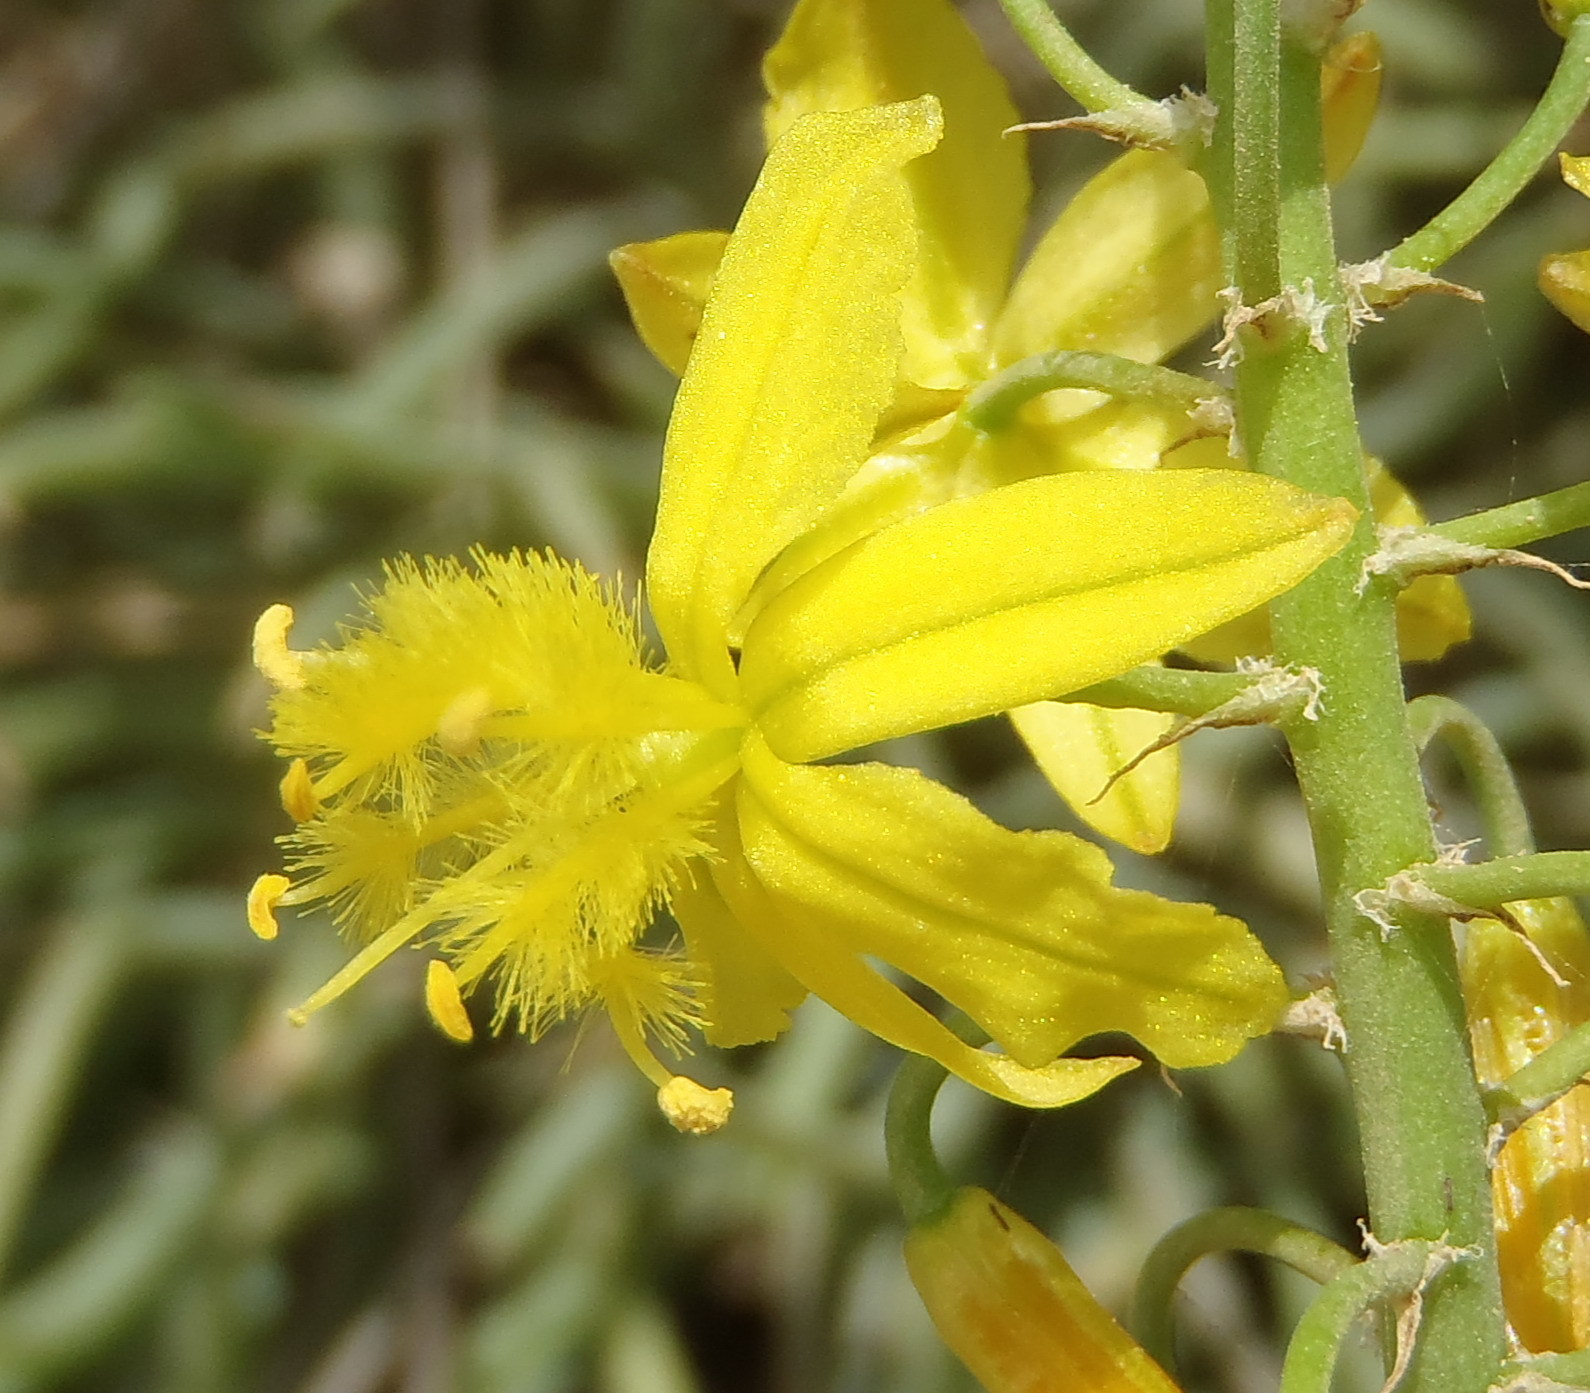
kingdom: Plantae
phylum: Tracheophyta
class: Liliopsida
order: Asparagales
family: Asphodelaceae
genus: Bulbine
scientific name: Bulbine abyssinica
